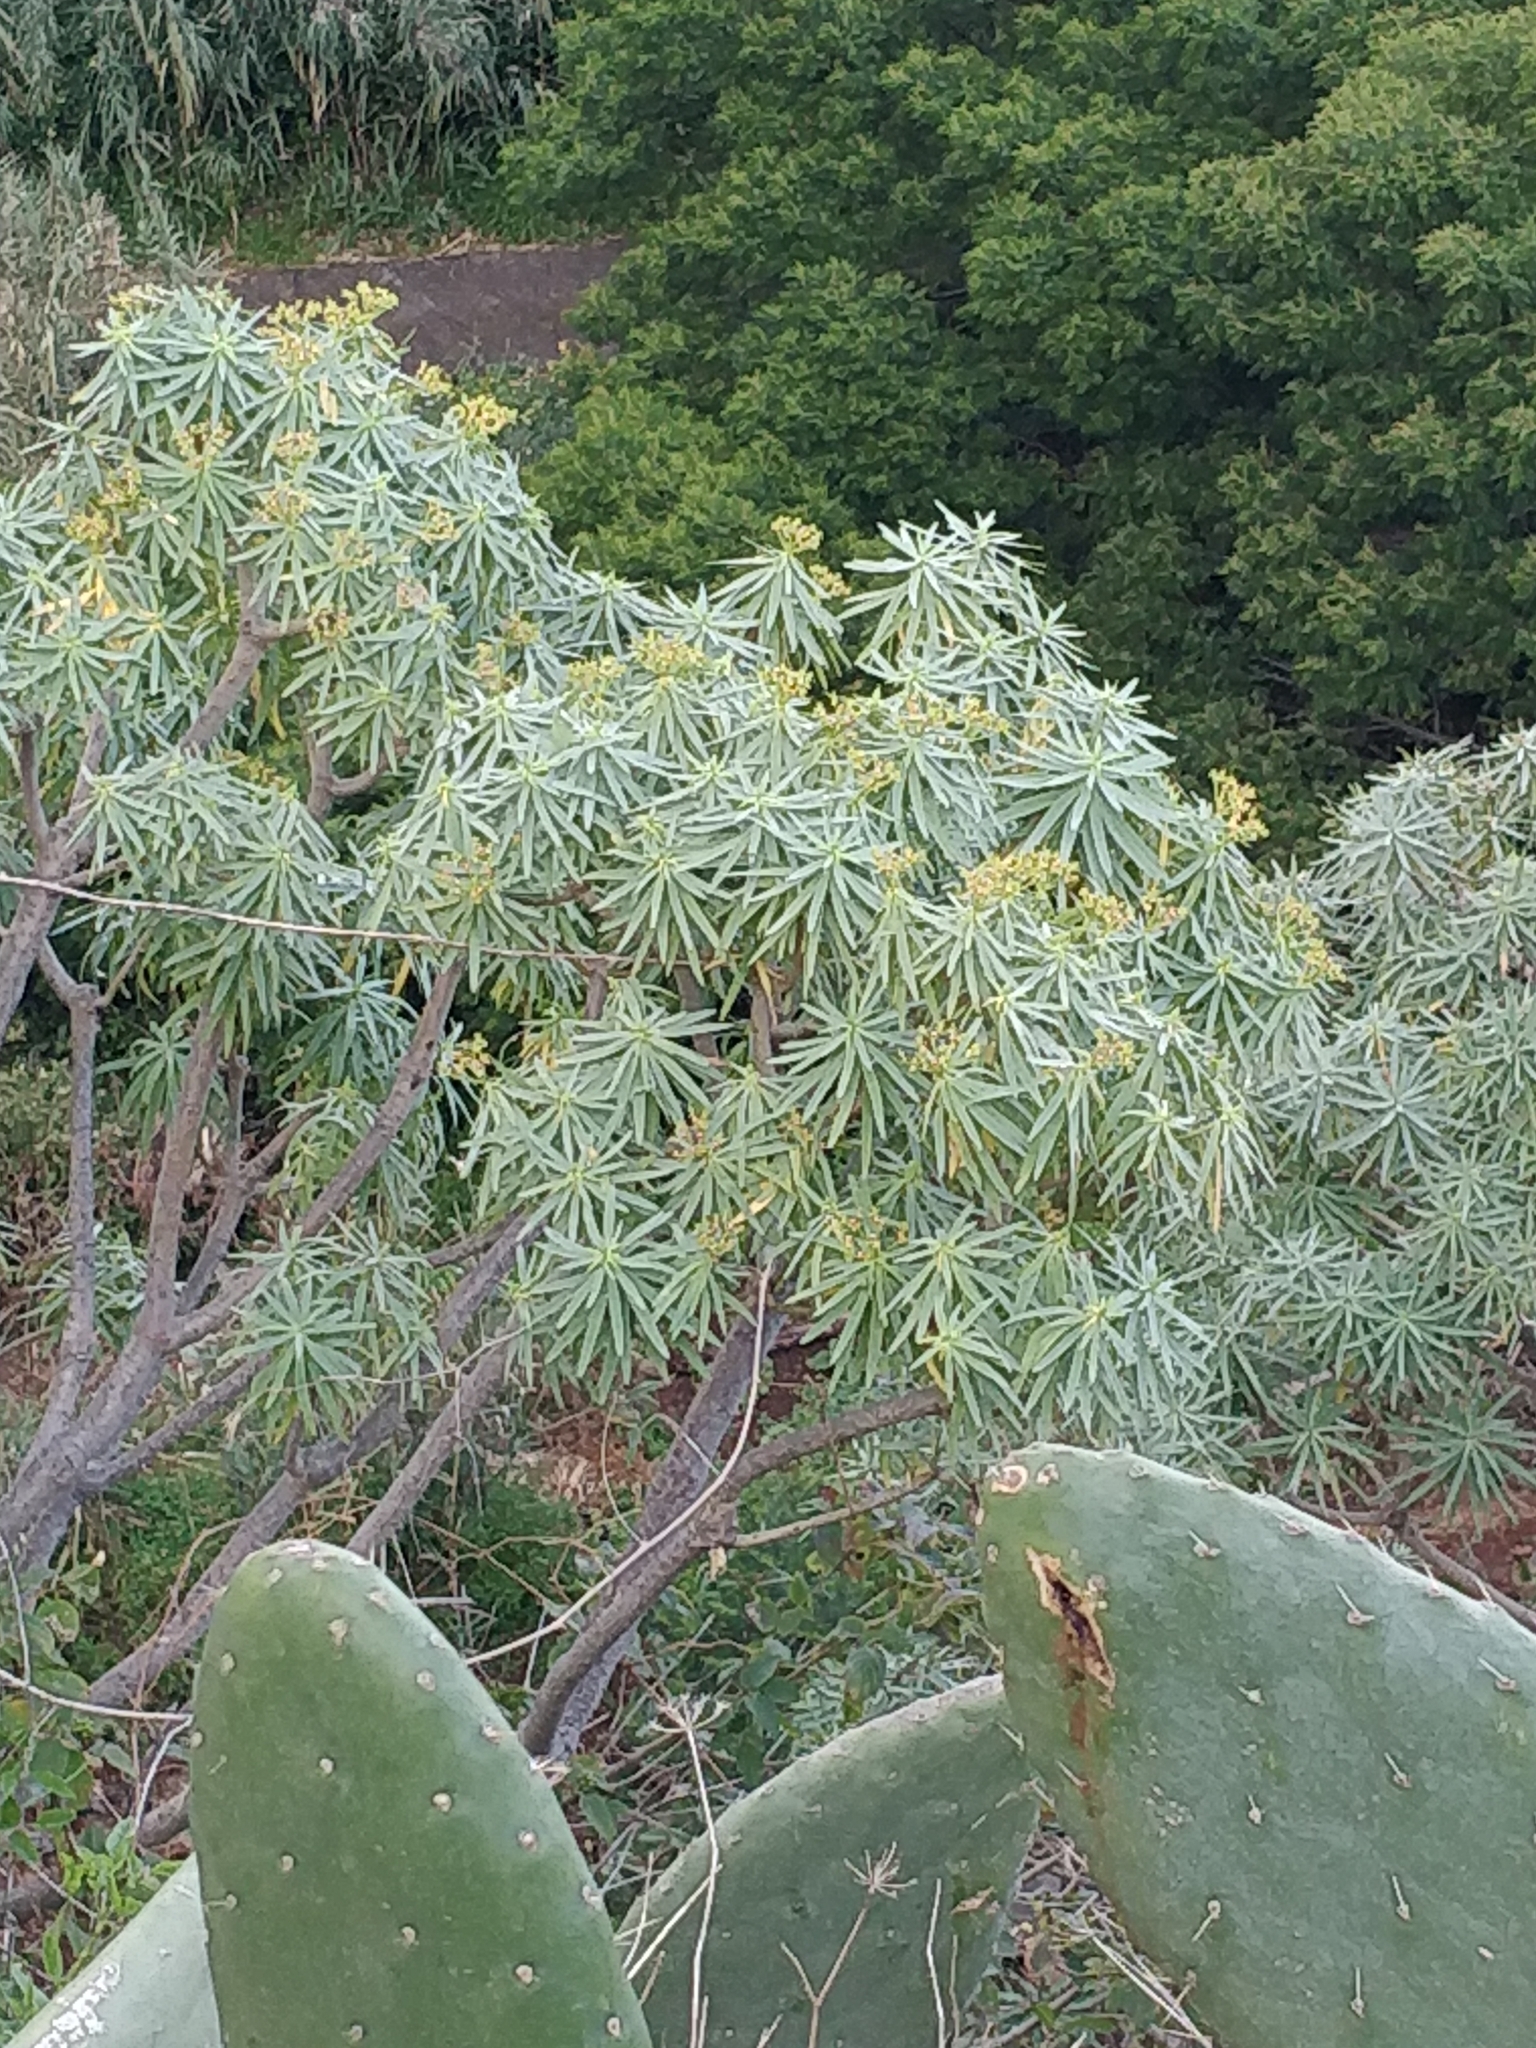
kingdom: Plantae
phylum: Tracheophyta
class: Magnoliopsida
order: Malpighiales
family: Euphorbiaceae
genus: Euphorbia
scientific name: Euphorbia piscatoria
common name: Fish-stunning spurge
